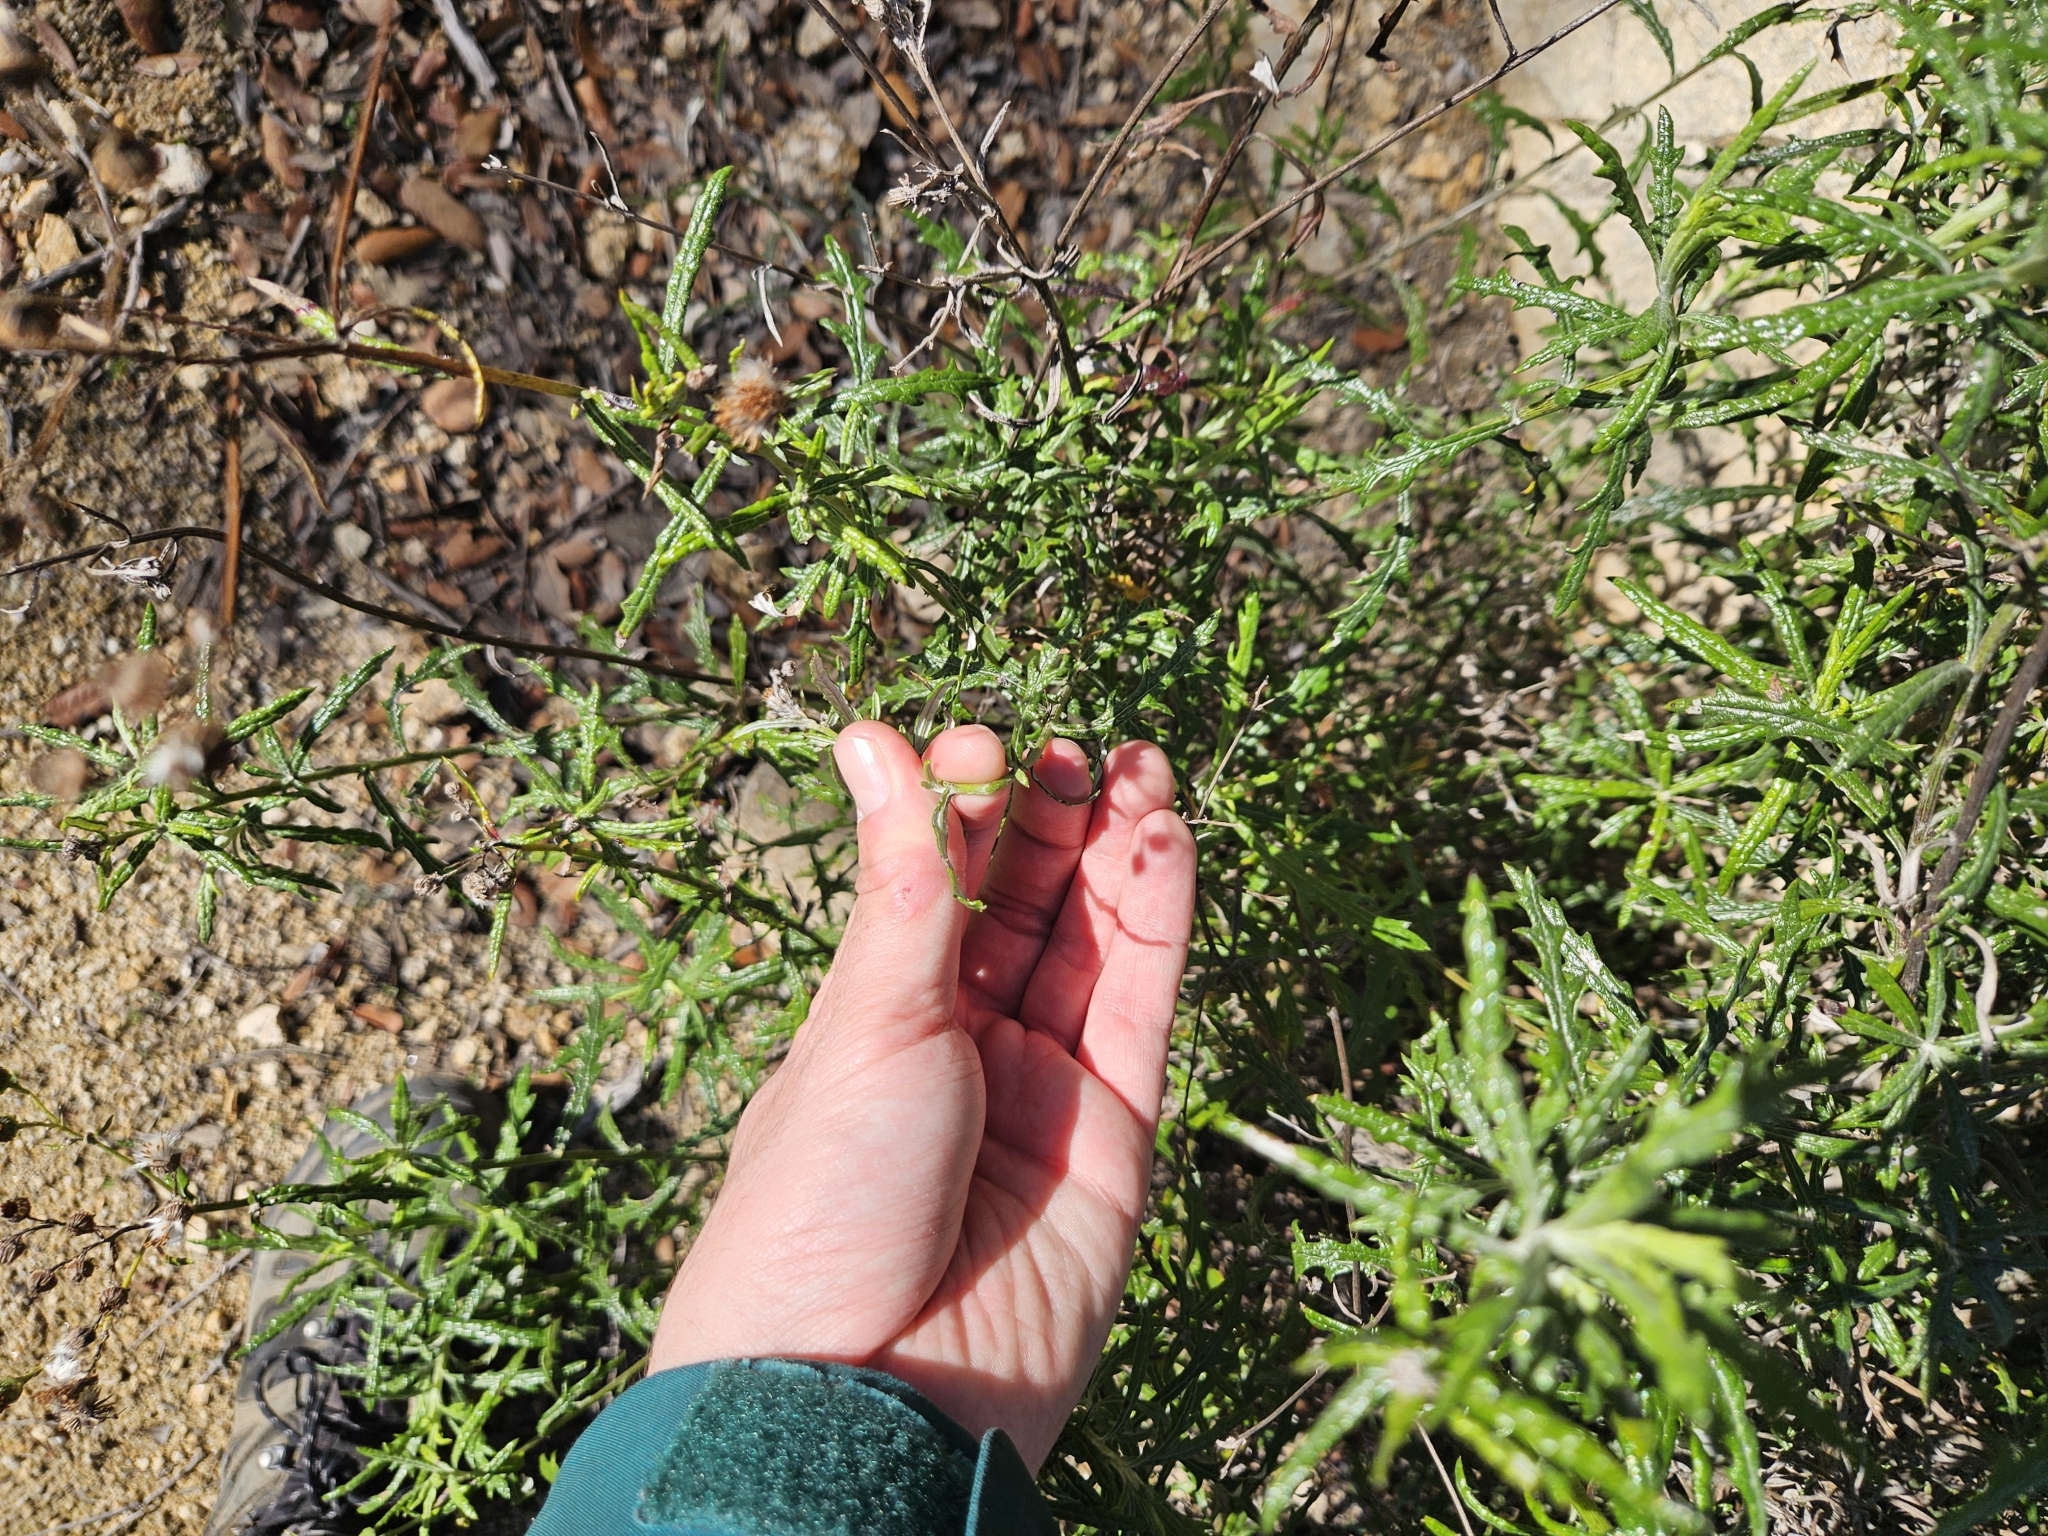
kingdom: Plantae
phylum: Tracheophyta
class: Magnoliopsida
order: Asterales
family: Asteraceae
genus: Senecio
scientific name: Senecio pterophorus
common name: Shoddy ragwort
